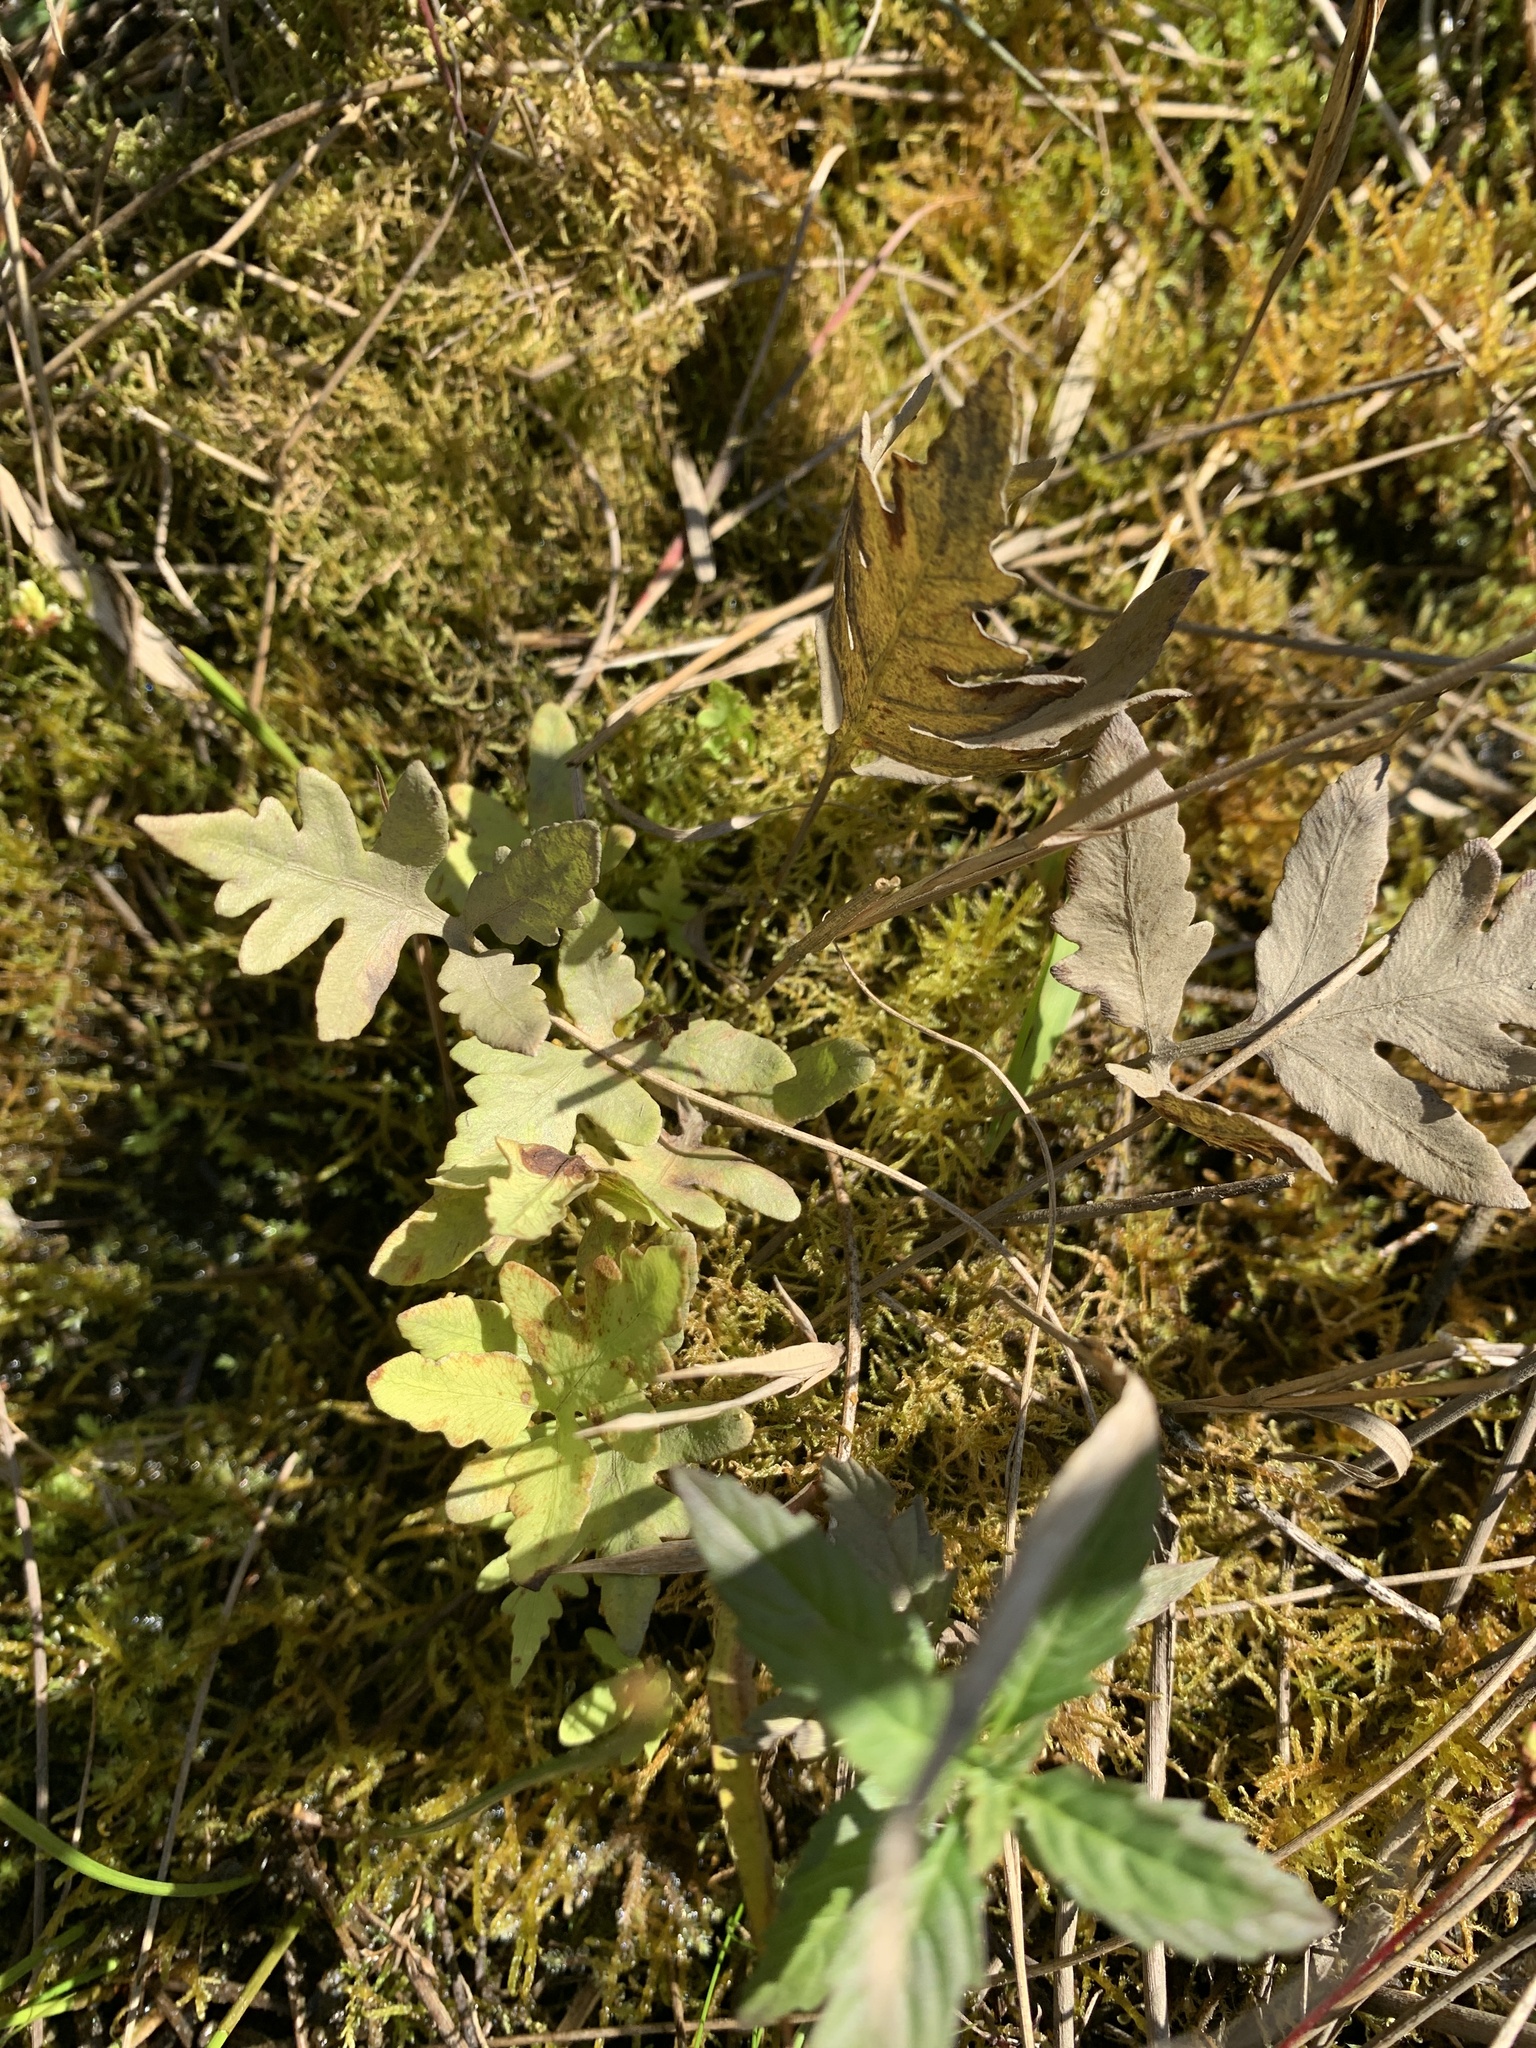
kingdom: Plantae
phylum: Tracheophyta
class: Polypodiopsida
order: Polypodiales
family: Onocleaceae
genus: Onoclea
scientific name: Onoclea sensibilis
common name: Sensitive fern
